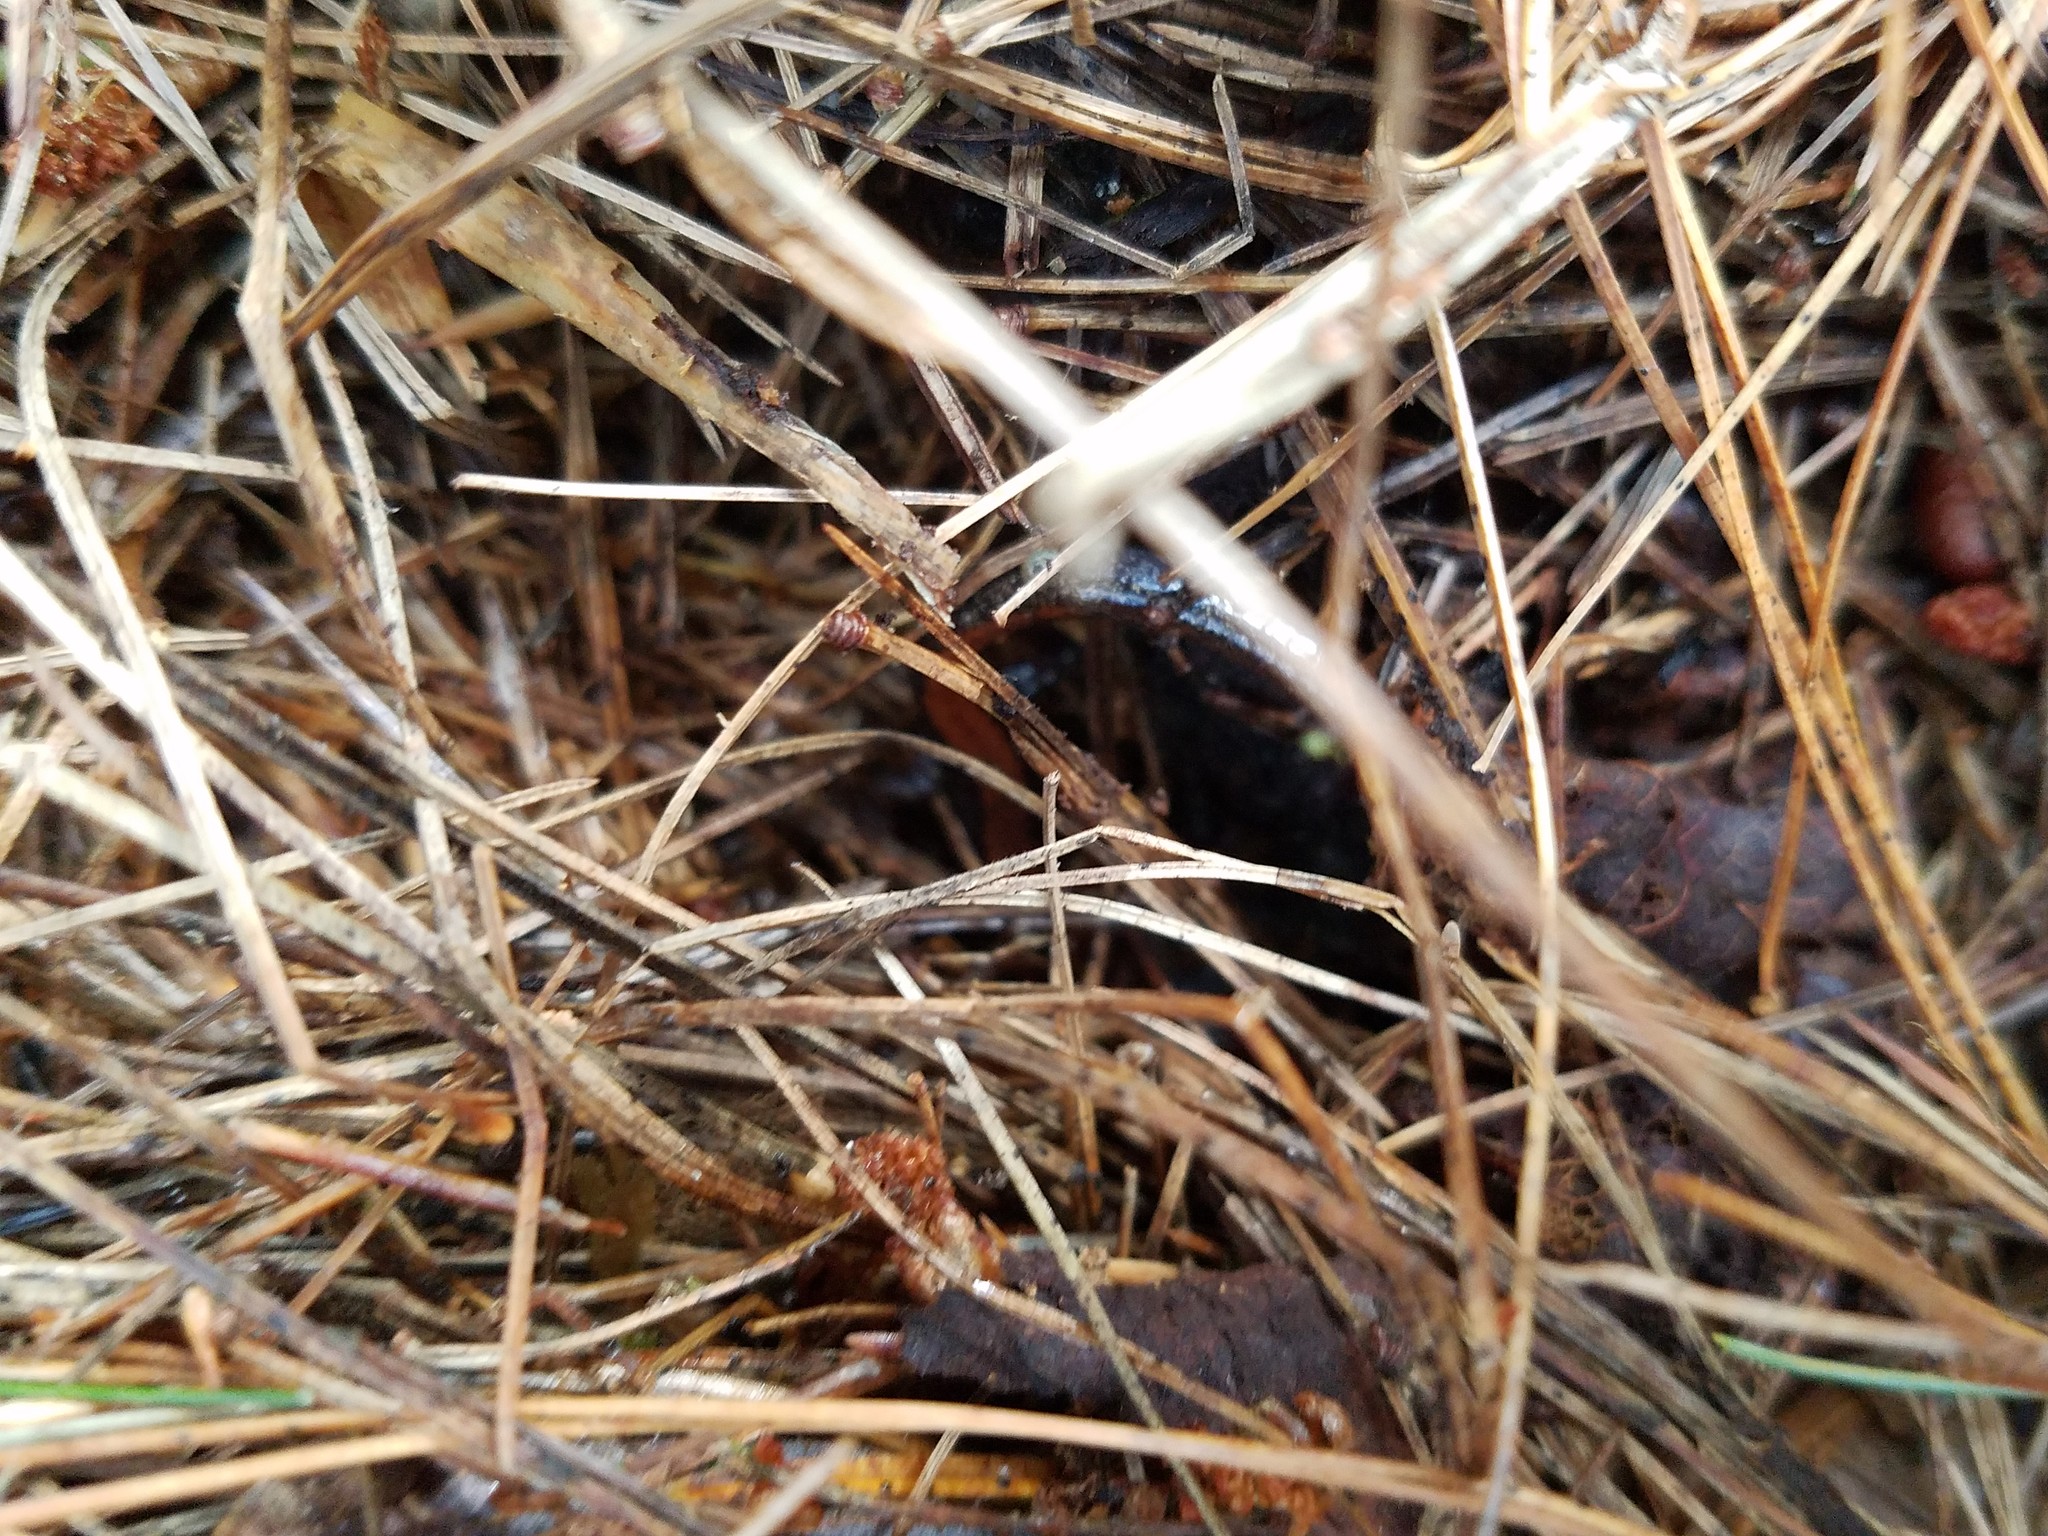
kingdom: Animalia
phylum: Chordata
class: Amphibia
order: Caudata
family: Plethodontidae
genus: Plethodon
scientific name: Plethodon cinereus
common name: Redback salamander
